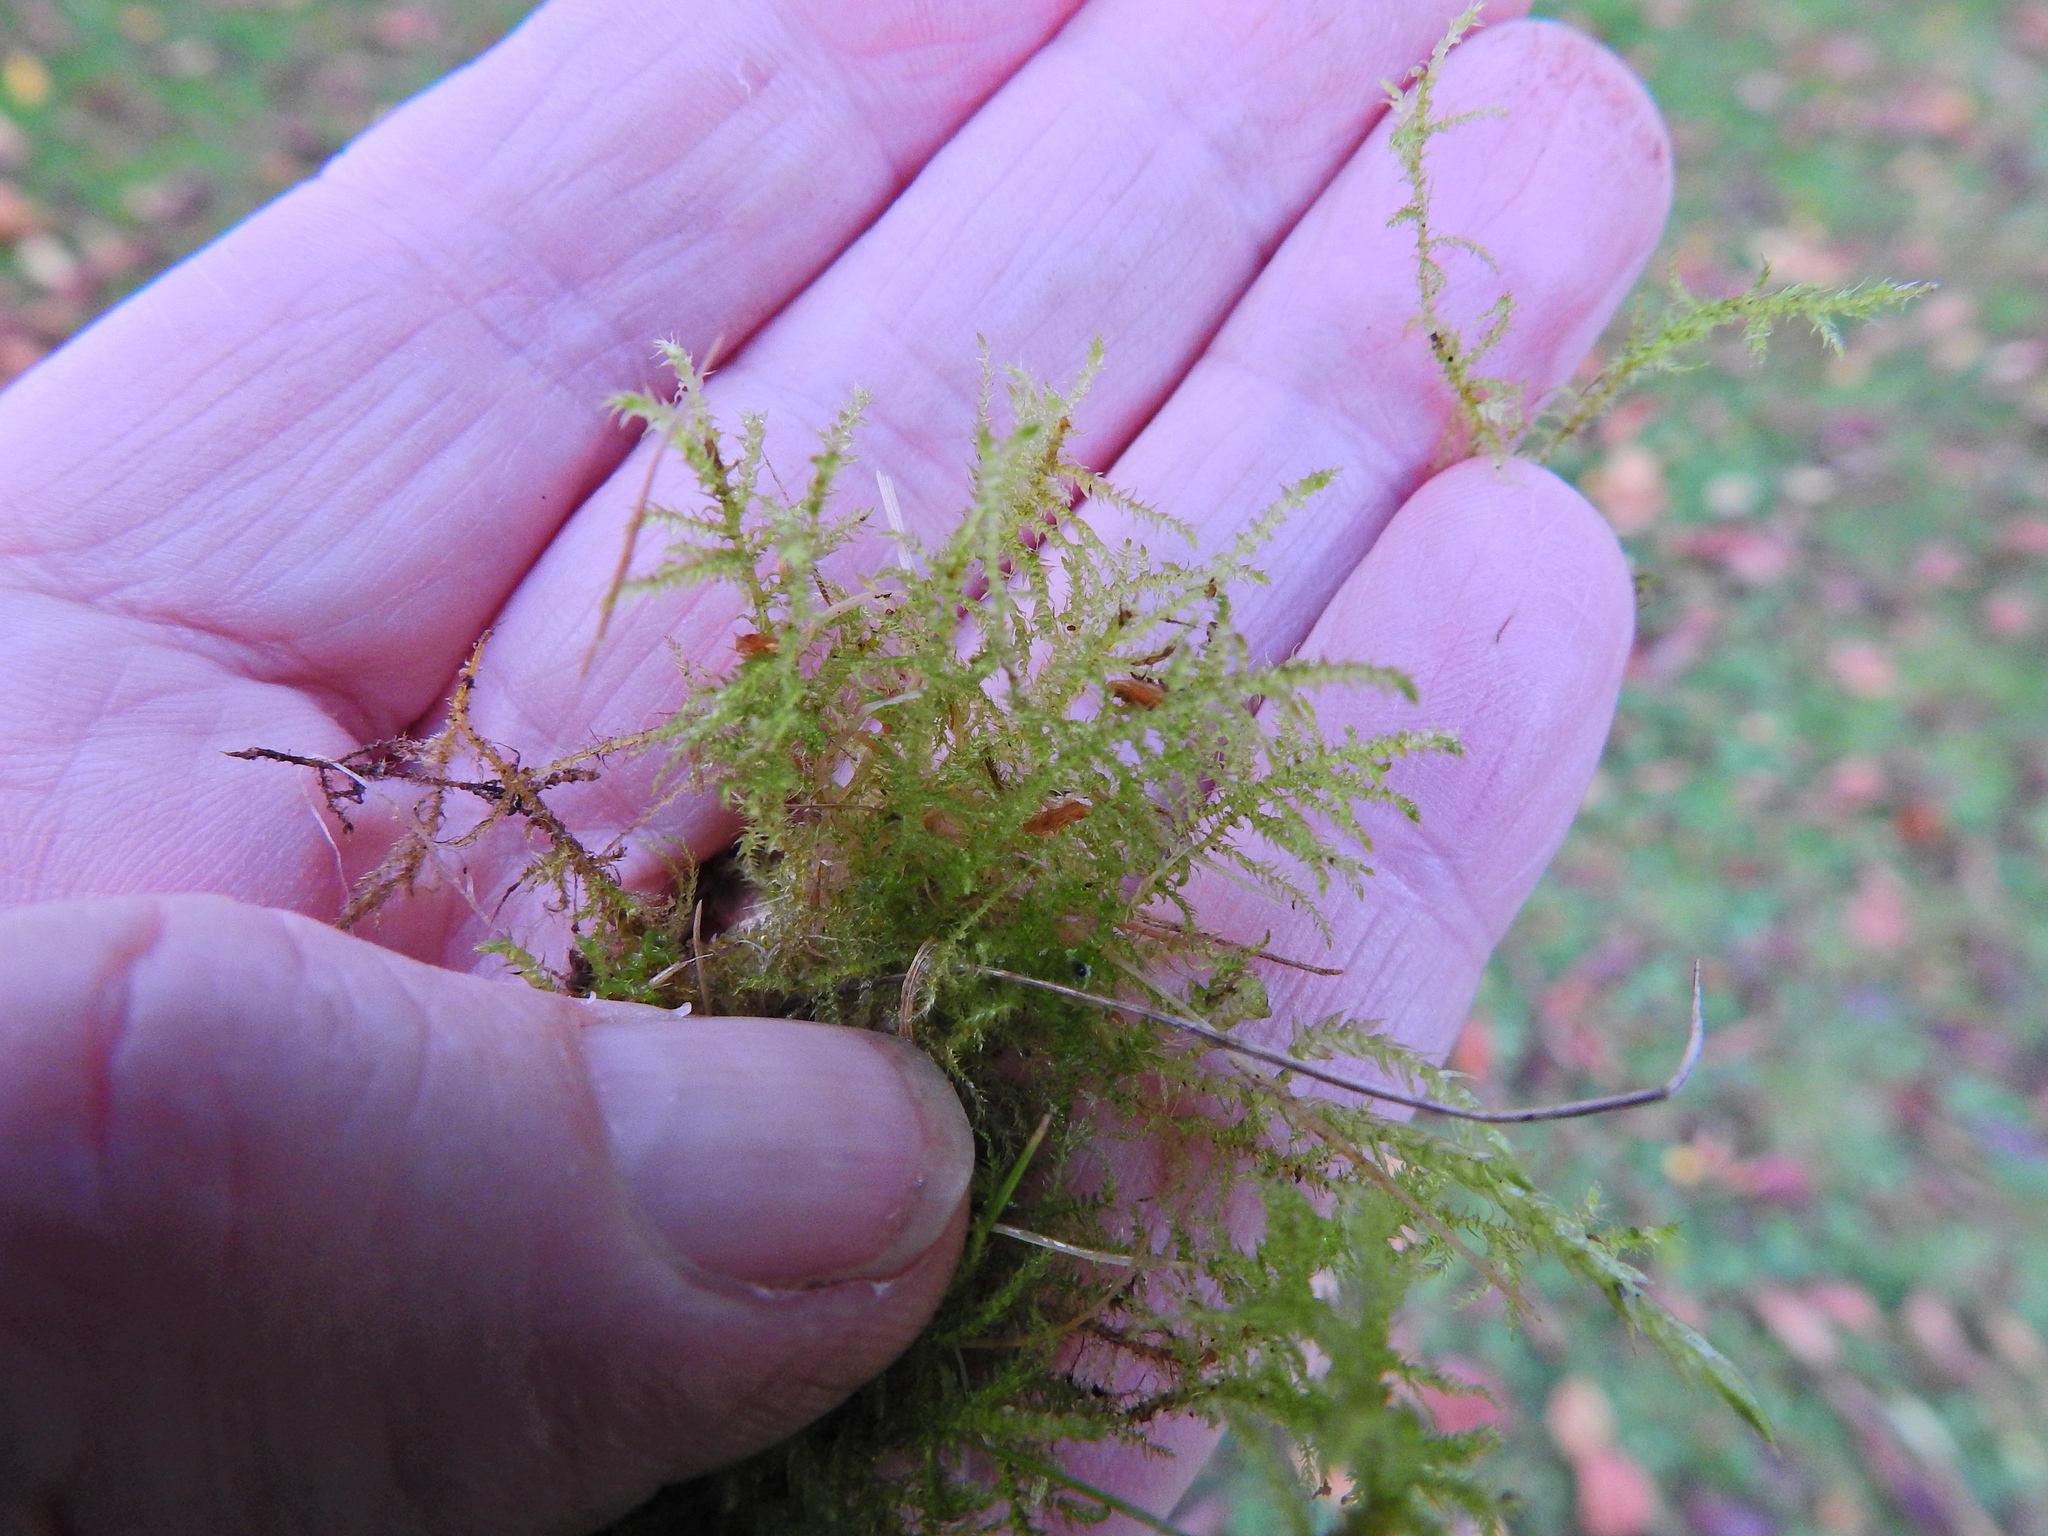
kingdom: Plantae
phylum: Bryophyta
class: Bryopsida
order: Hypnales
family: Brachytheciaceae
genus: Kindbergia
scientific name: Kindbergia praelonga
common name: Slender beaked moss
